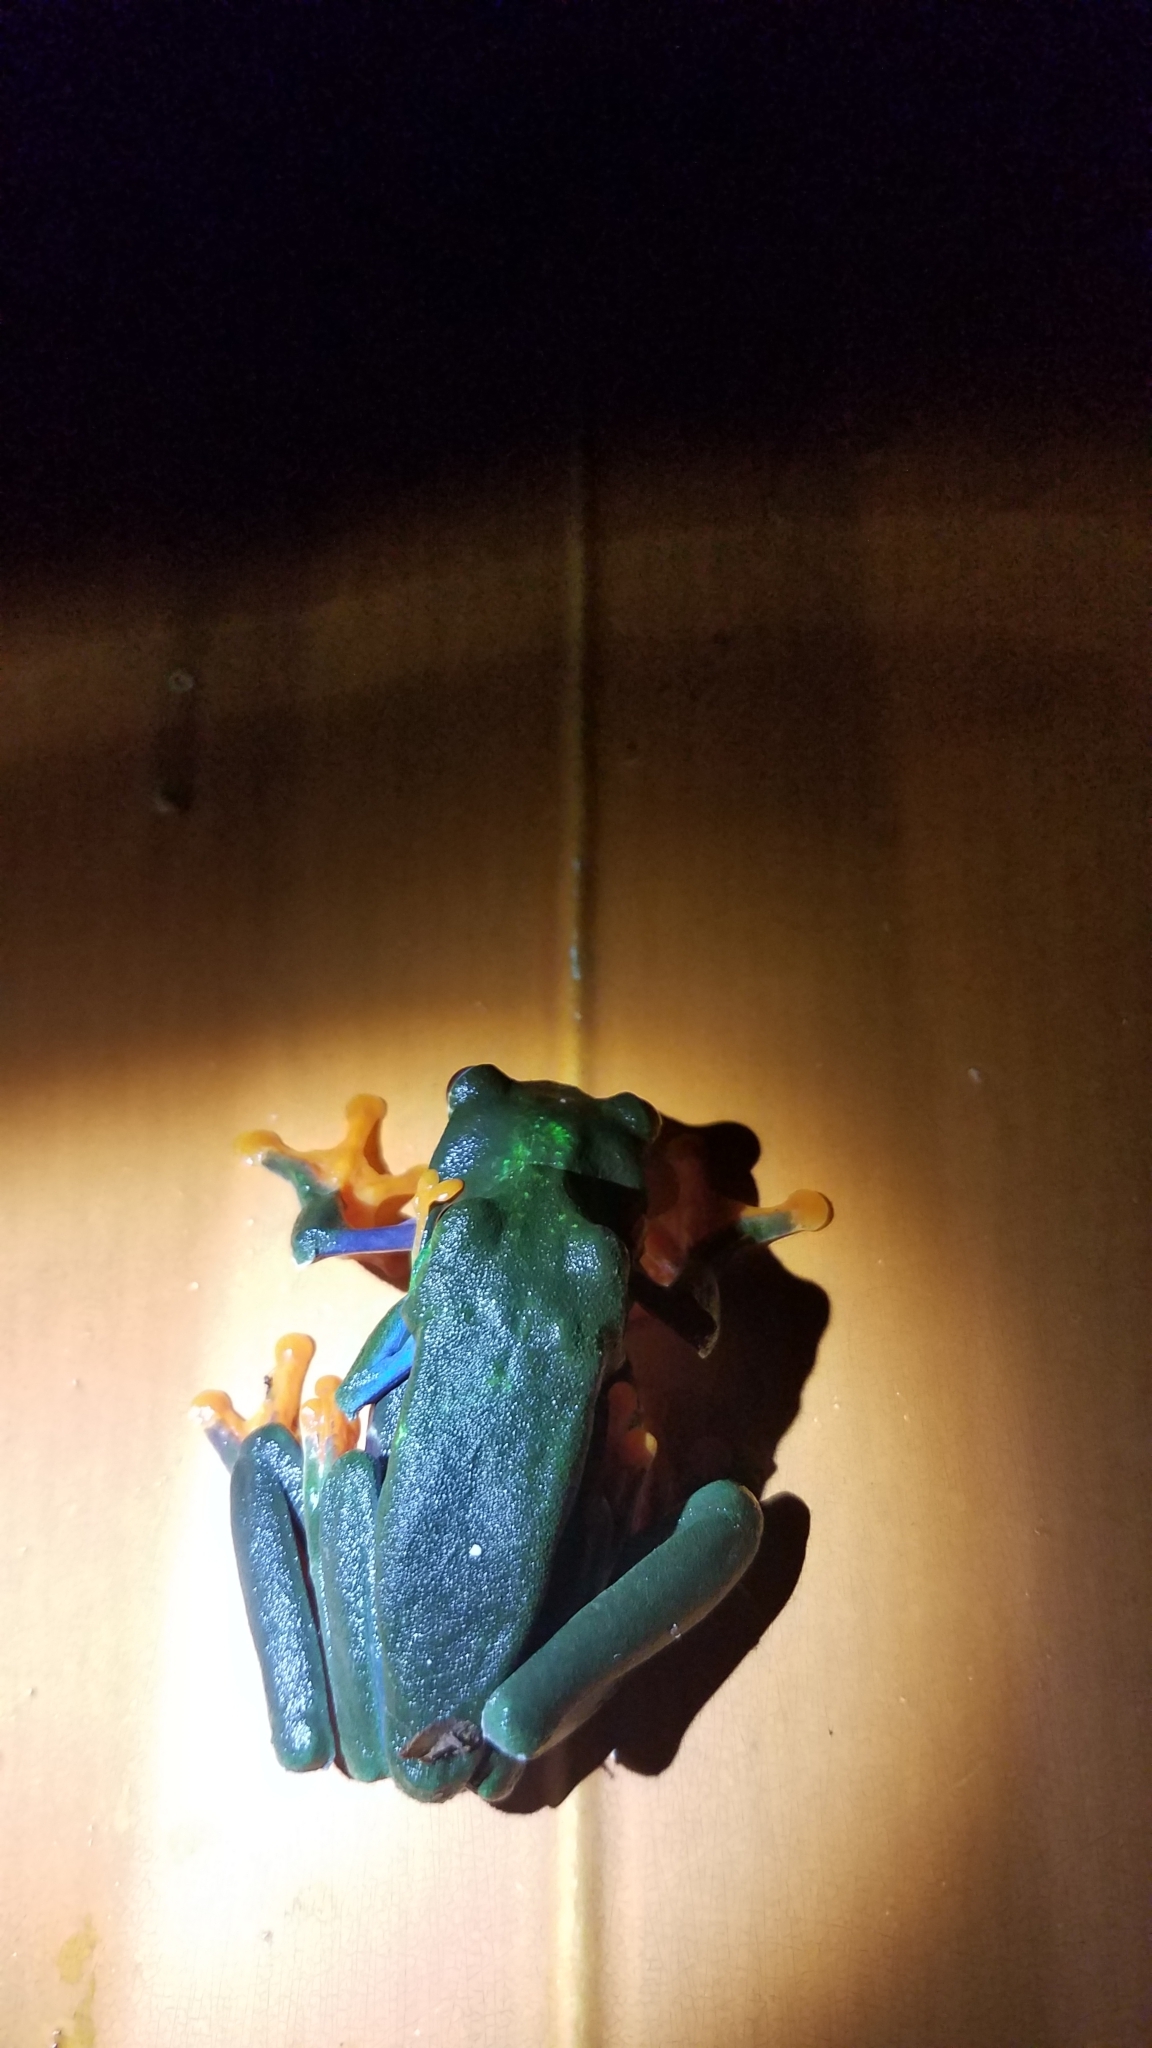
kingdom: Animalia
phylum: Chordata
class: Amphibia
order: Anura
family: Phyllomedusidae
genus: Agalychnis
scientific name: Agalychnis callidryas
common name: Red-eyed treefrog
